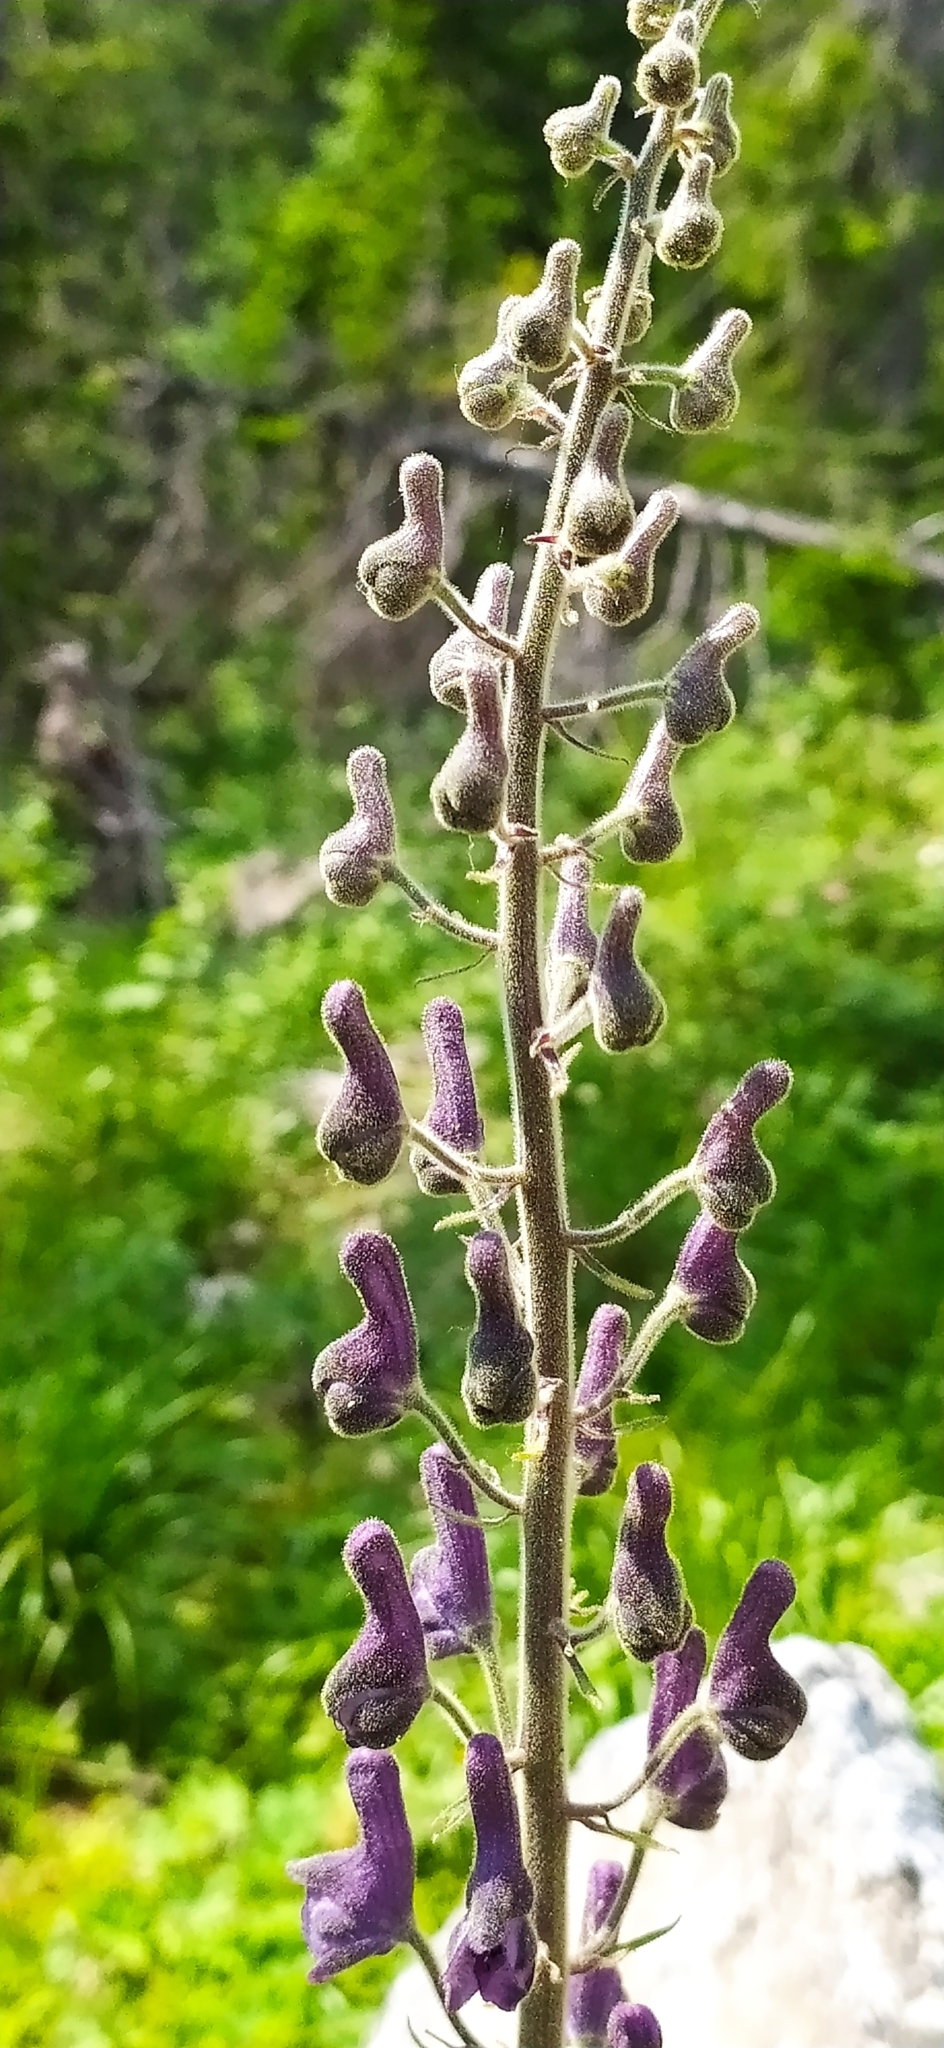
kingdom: Plantae
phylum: Tracheophyta
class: Magnoliopsida
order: Ranunculales
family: Ranunculaceae
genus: Aconitum
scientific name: Aconitum septentrionale
